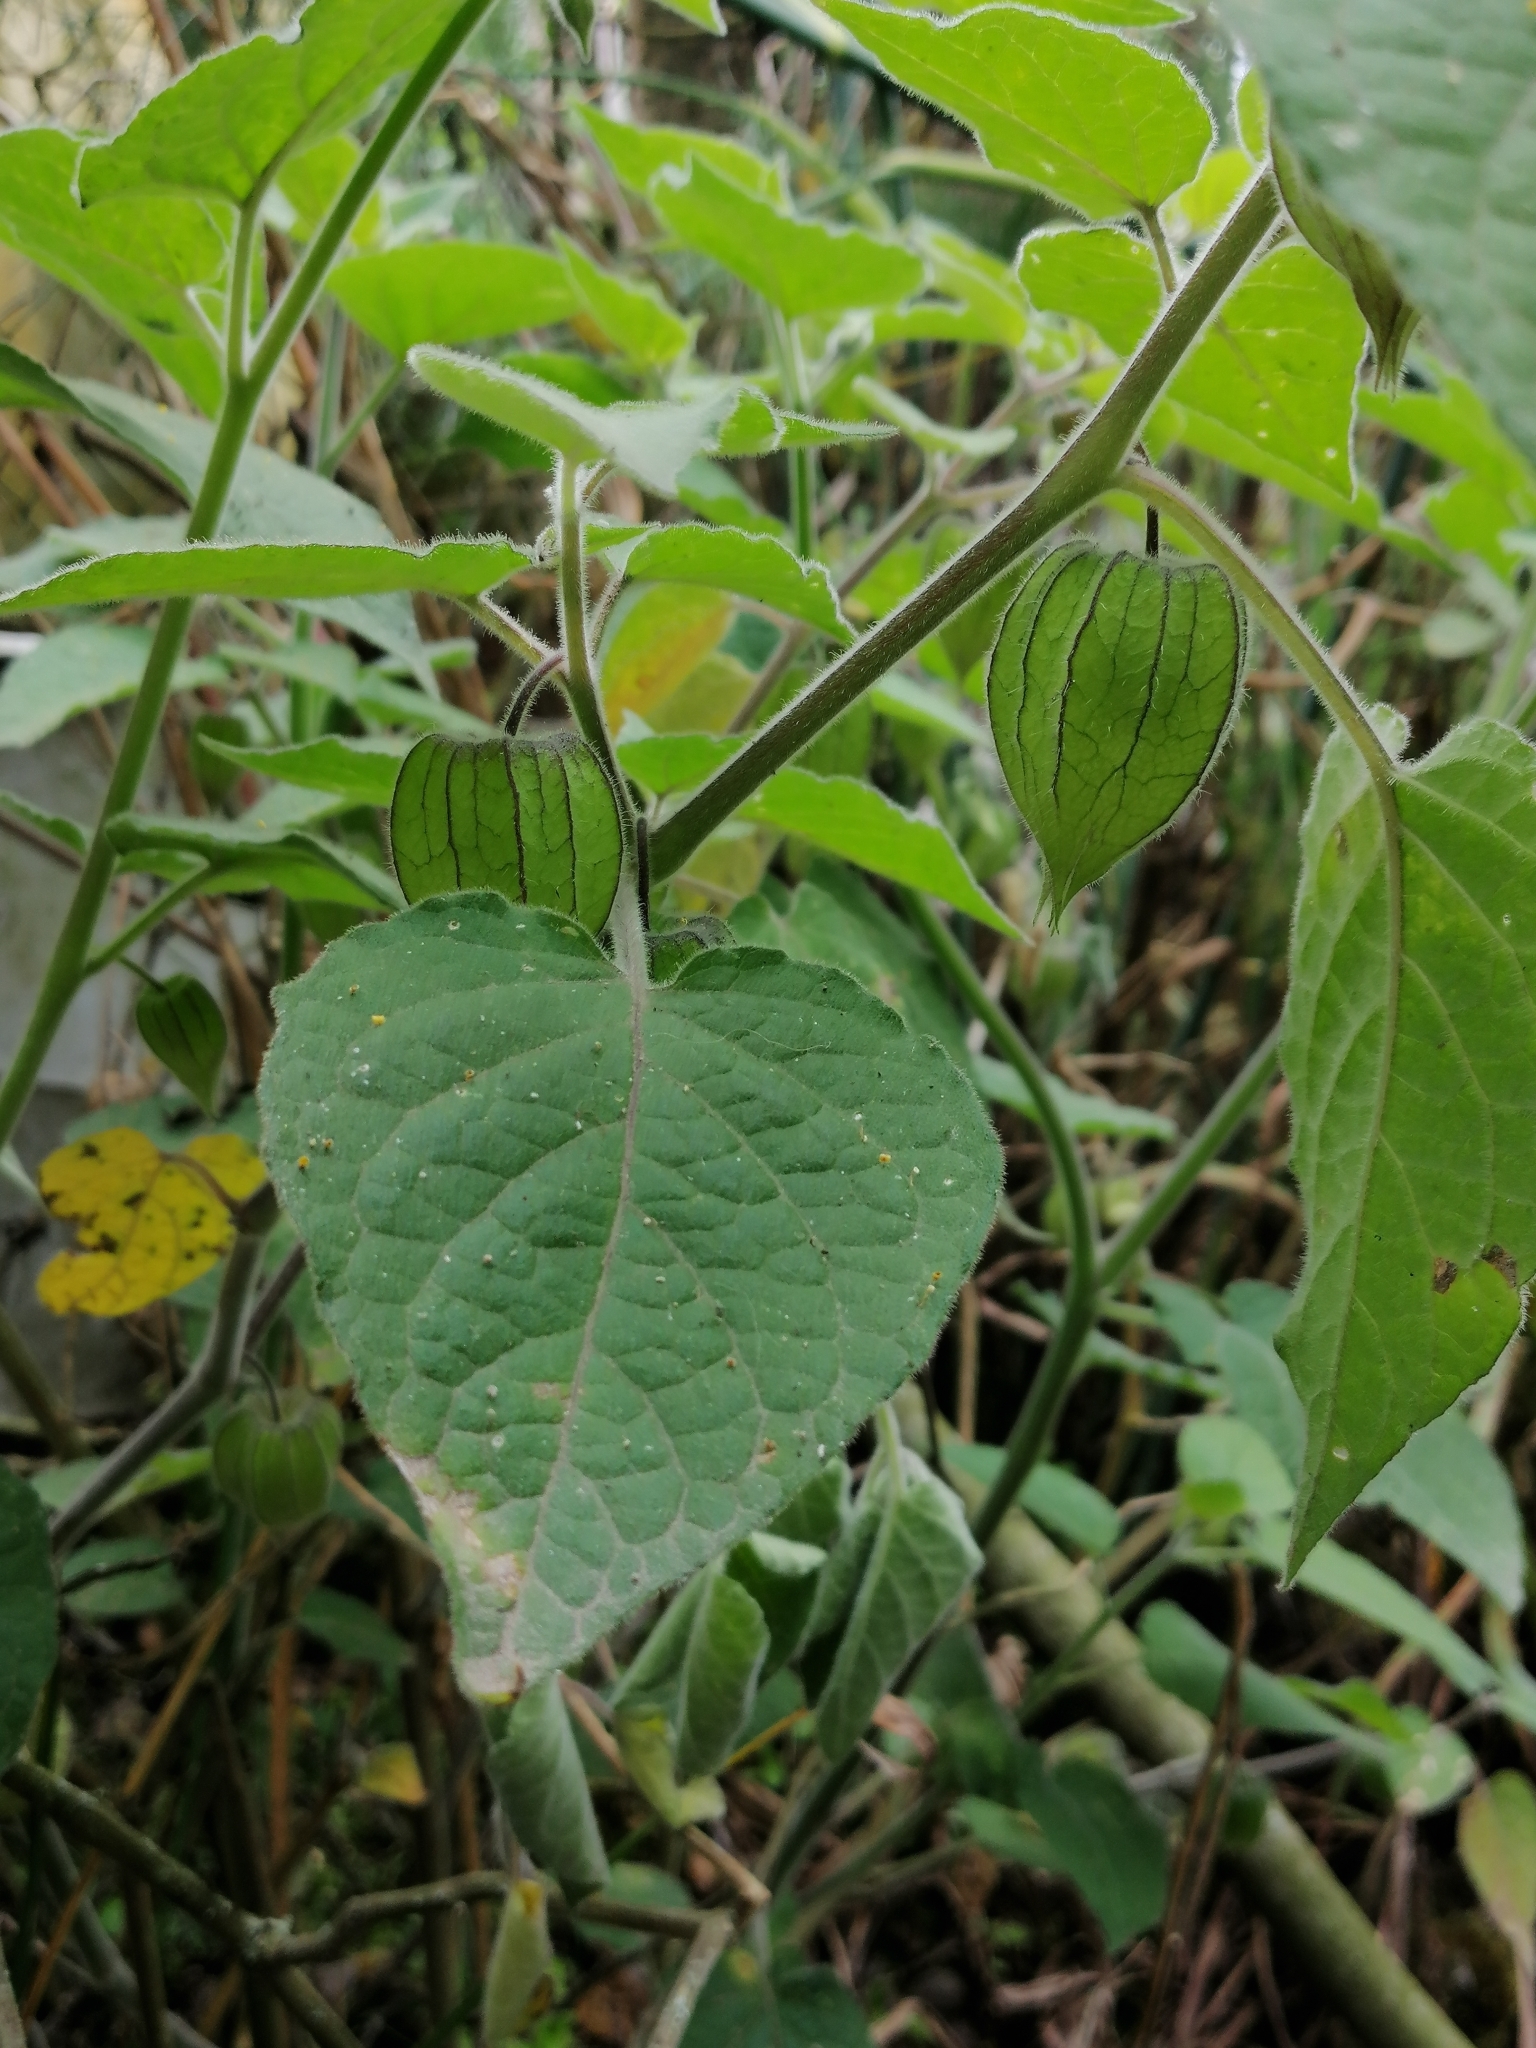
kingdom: Plantae
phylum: Tracheophyta
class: Magnoliopsida
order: Solanales
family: Solanaceae
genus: Physalis
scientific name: Physalis peruviana
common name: Cape-gooseberry
